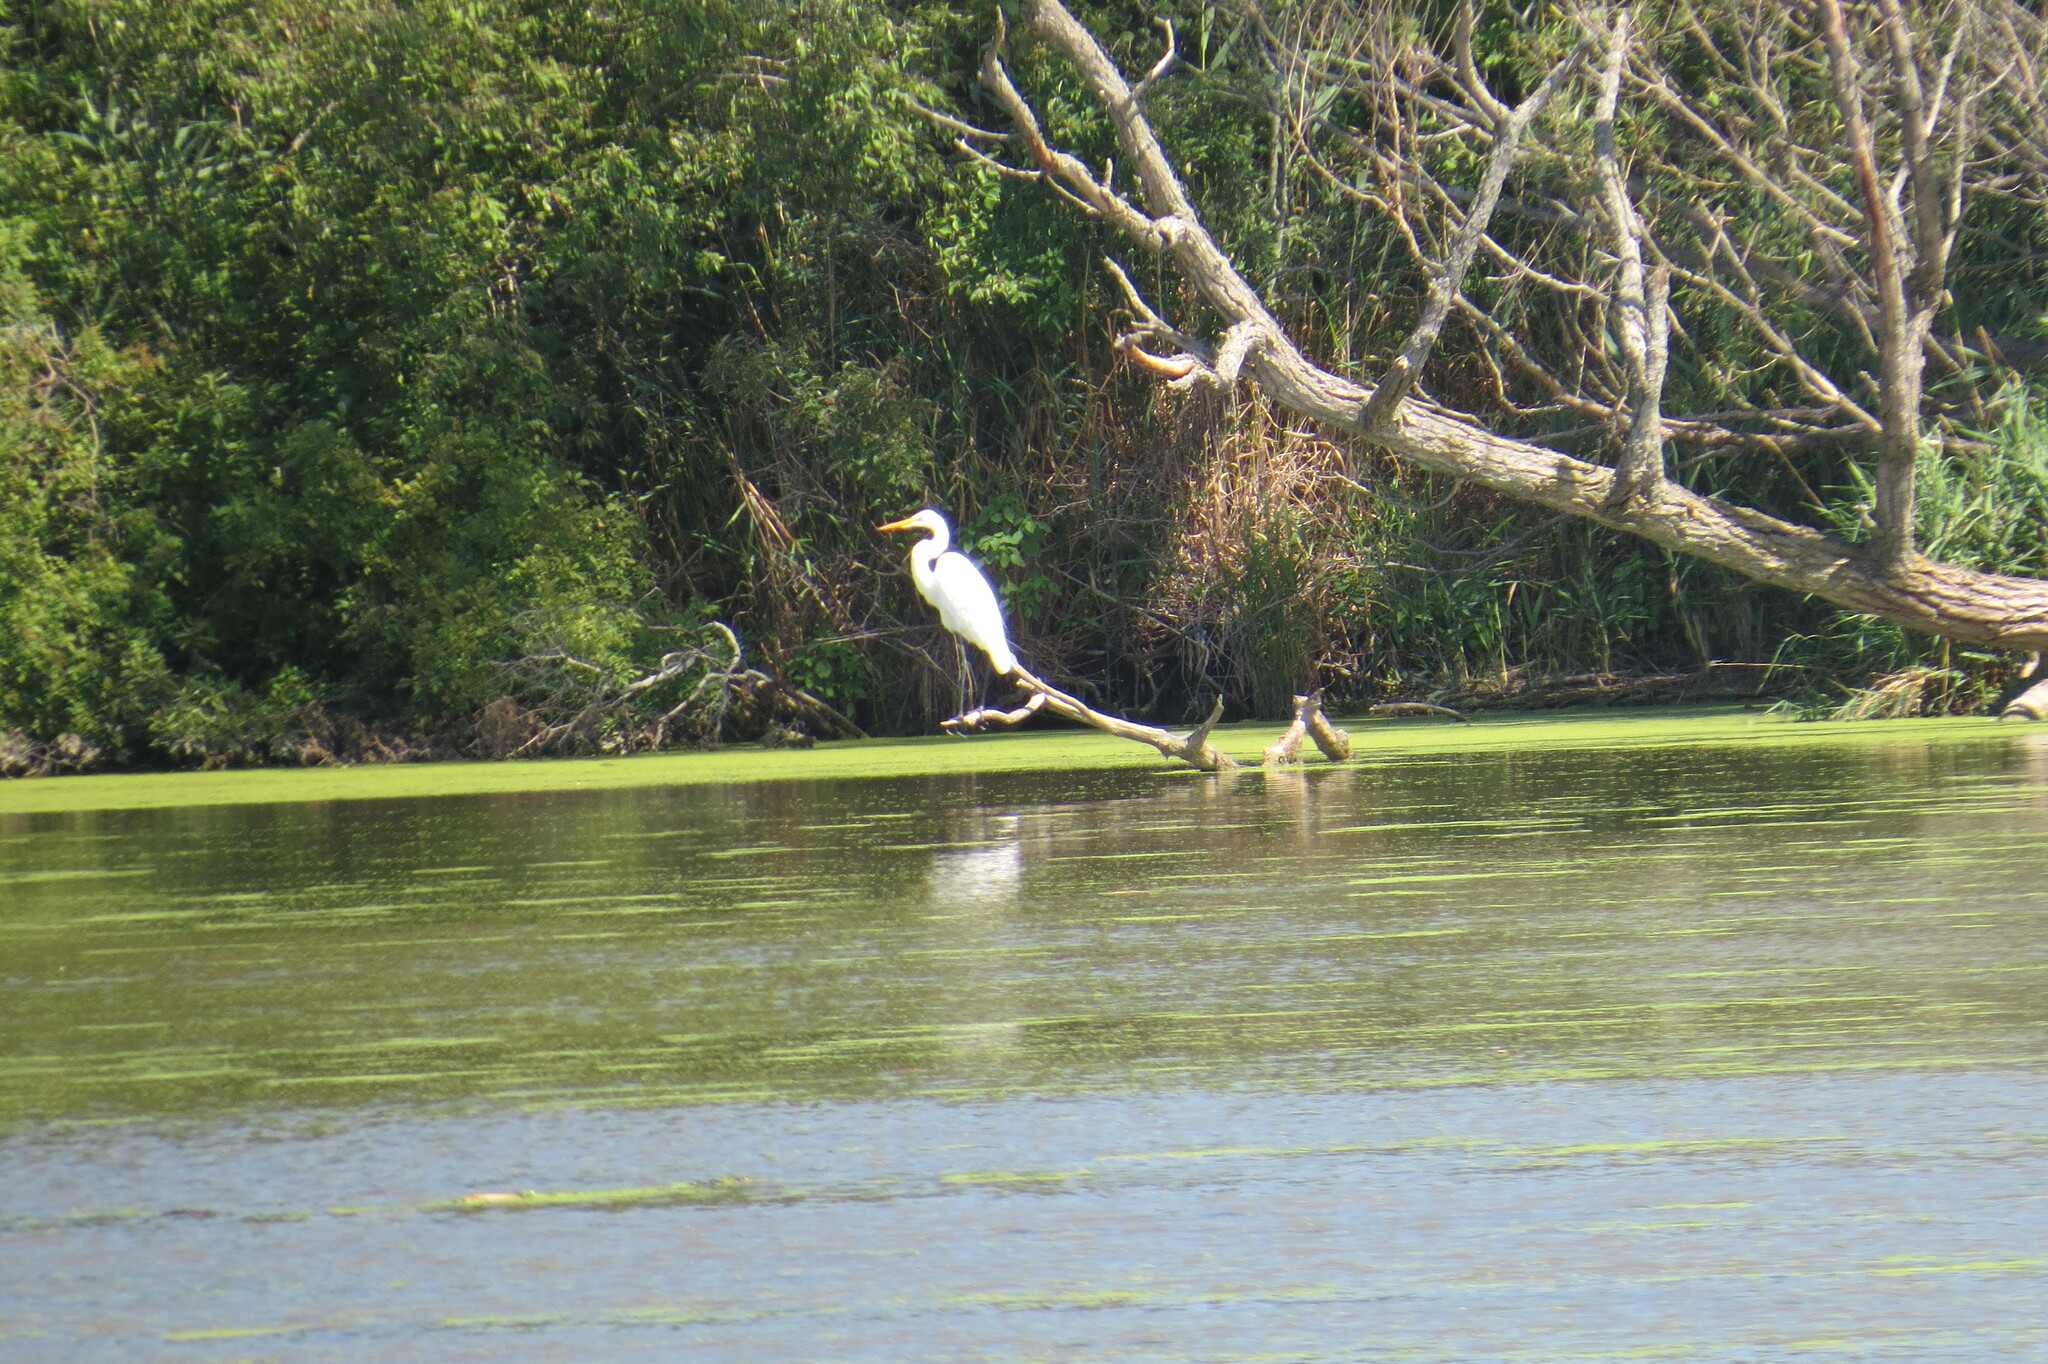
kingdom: Animalia
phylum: Chordata
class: Aves
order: Pelecaniformes
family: Ardeidae
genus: Ardea
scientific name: Ardea alba
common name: Great egret
